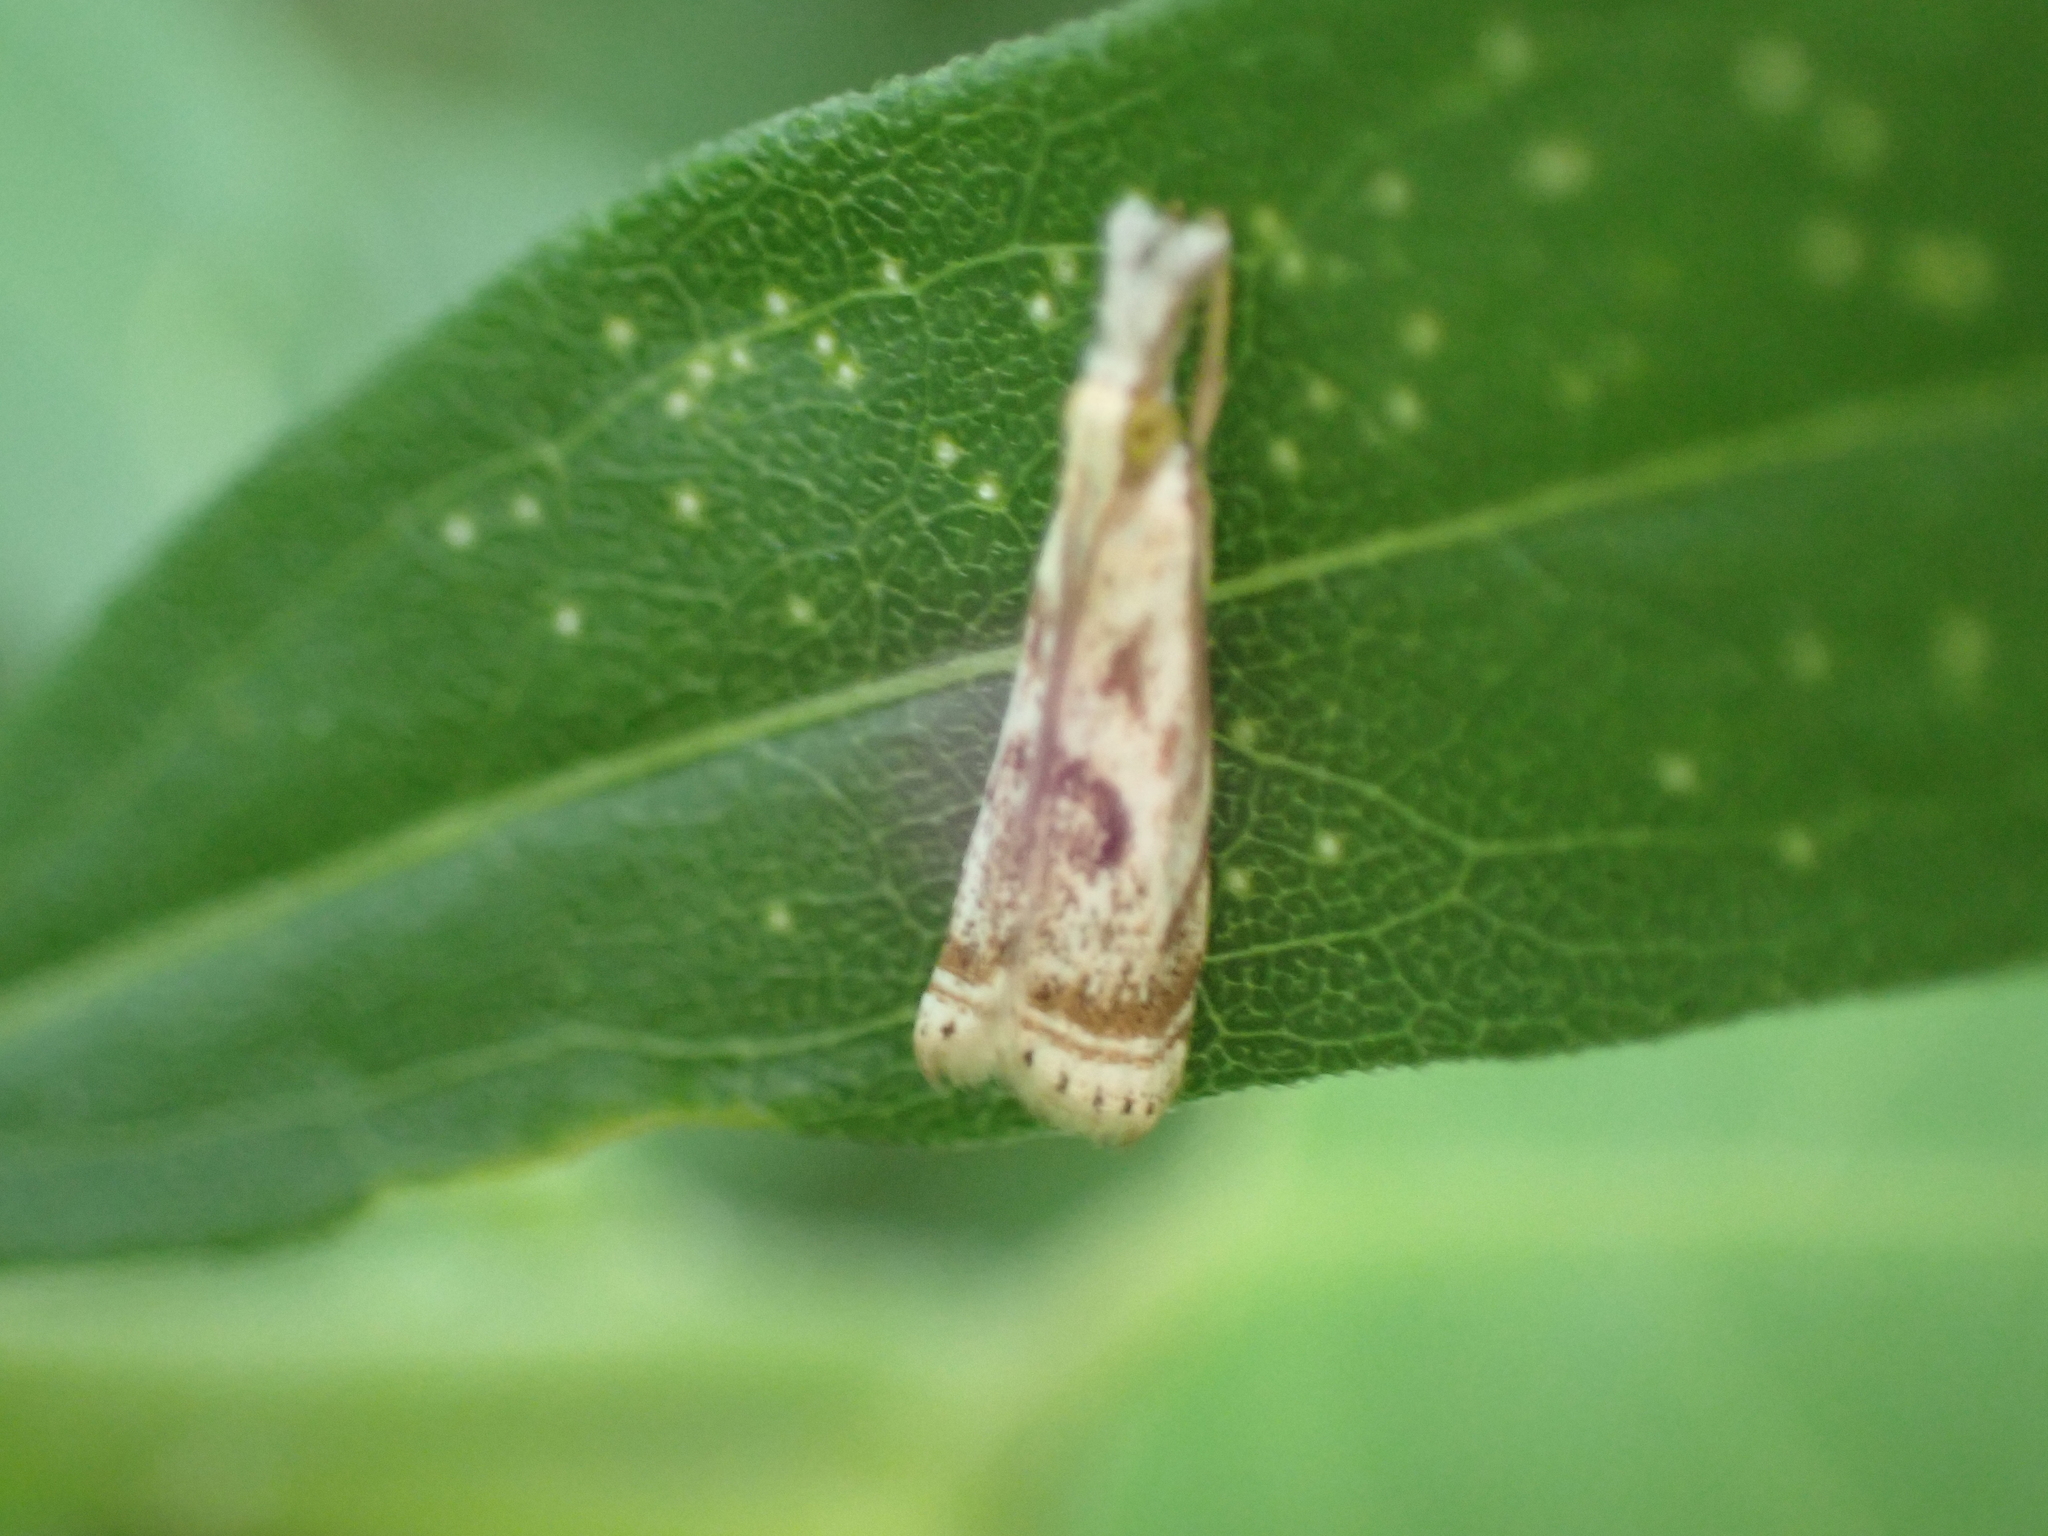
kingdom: Animalia
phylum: Arthropoda
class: Insecta
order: Lepidoptera
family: Crambidae
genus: Microcrambus
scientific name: Microcrambus elegans
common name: Elegant grass-veneer
